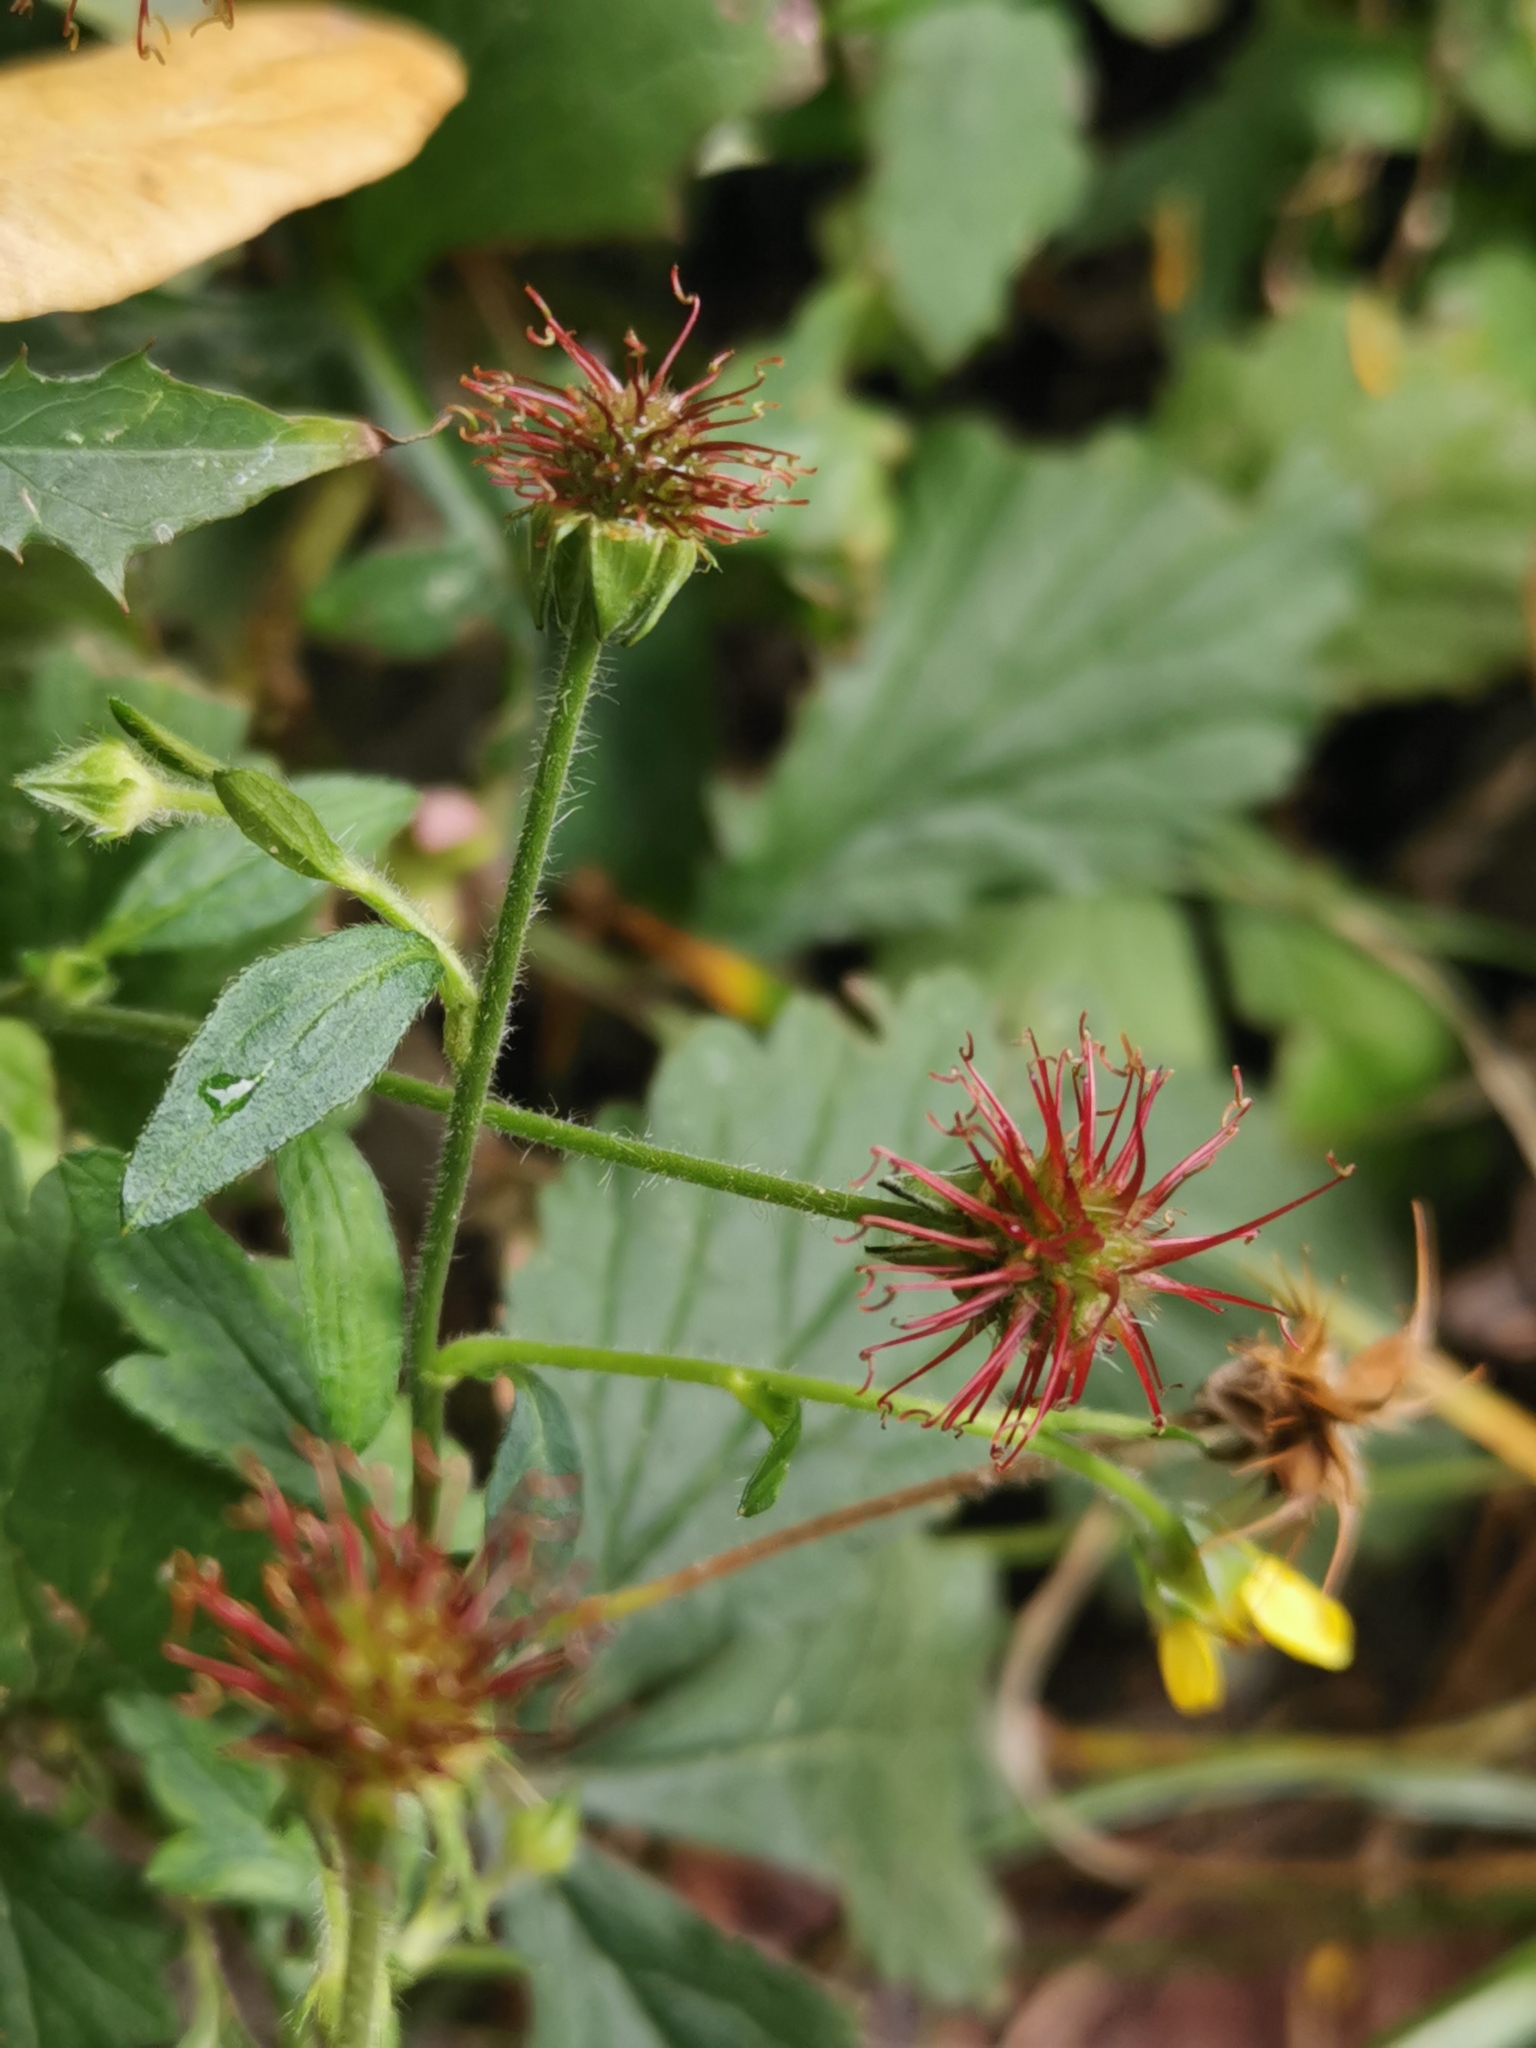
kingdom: Plantae
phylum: Tracheophyta
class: Magnoliopsida
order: Rosales
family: Rosaceae
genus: Geum
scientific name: Geum urbanum
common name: Wood avens
